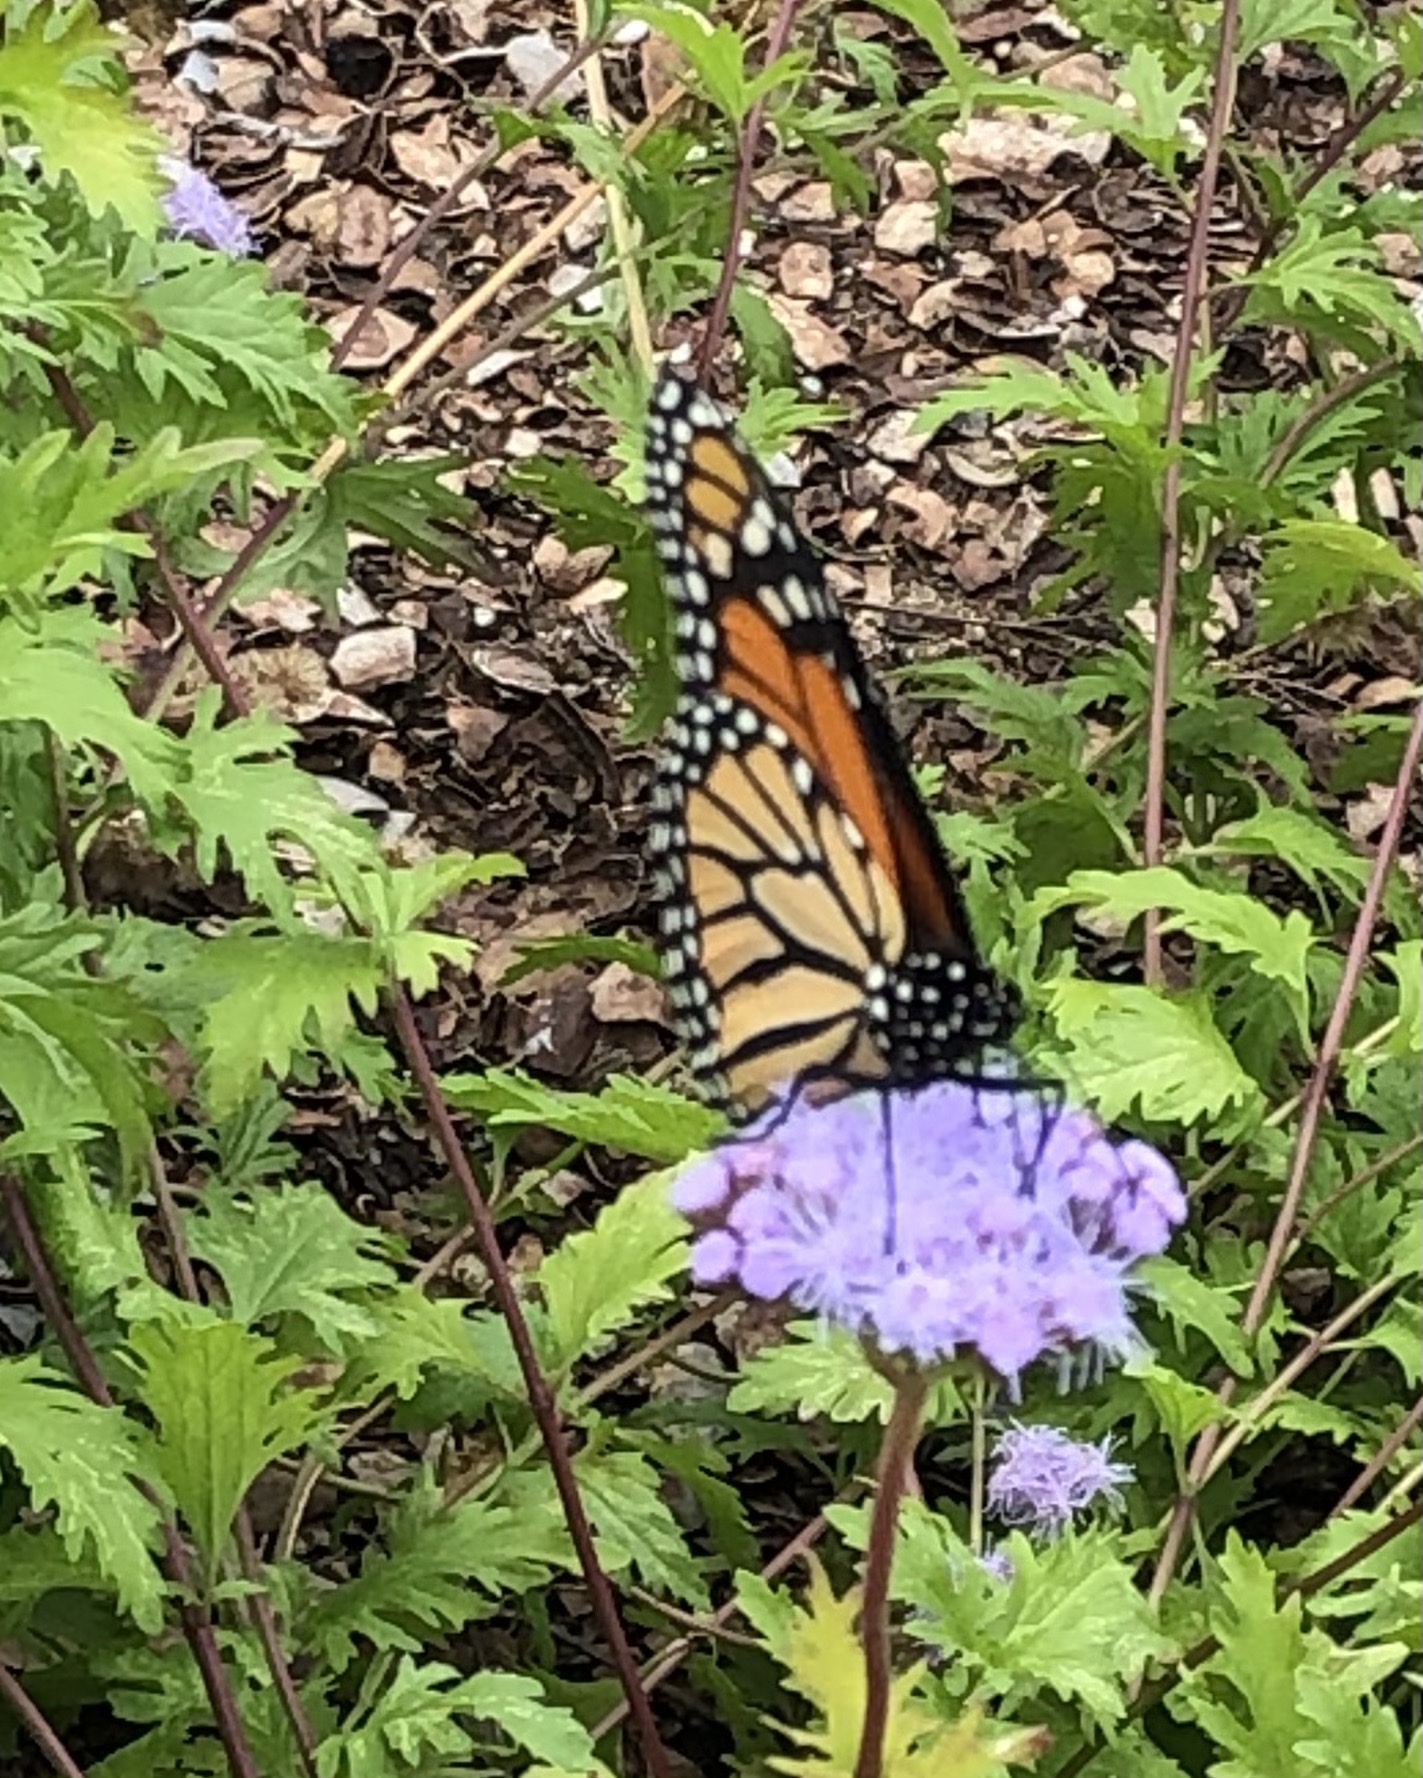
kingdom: Animalia
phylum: Arthropoda
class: Insecta
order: Lepidoptera
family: Nymphalidae
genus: Danaus
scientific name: Danaus plexippus
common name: Monarch
